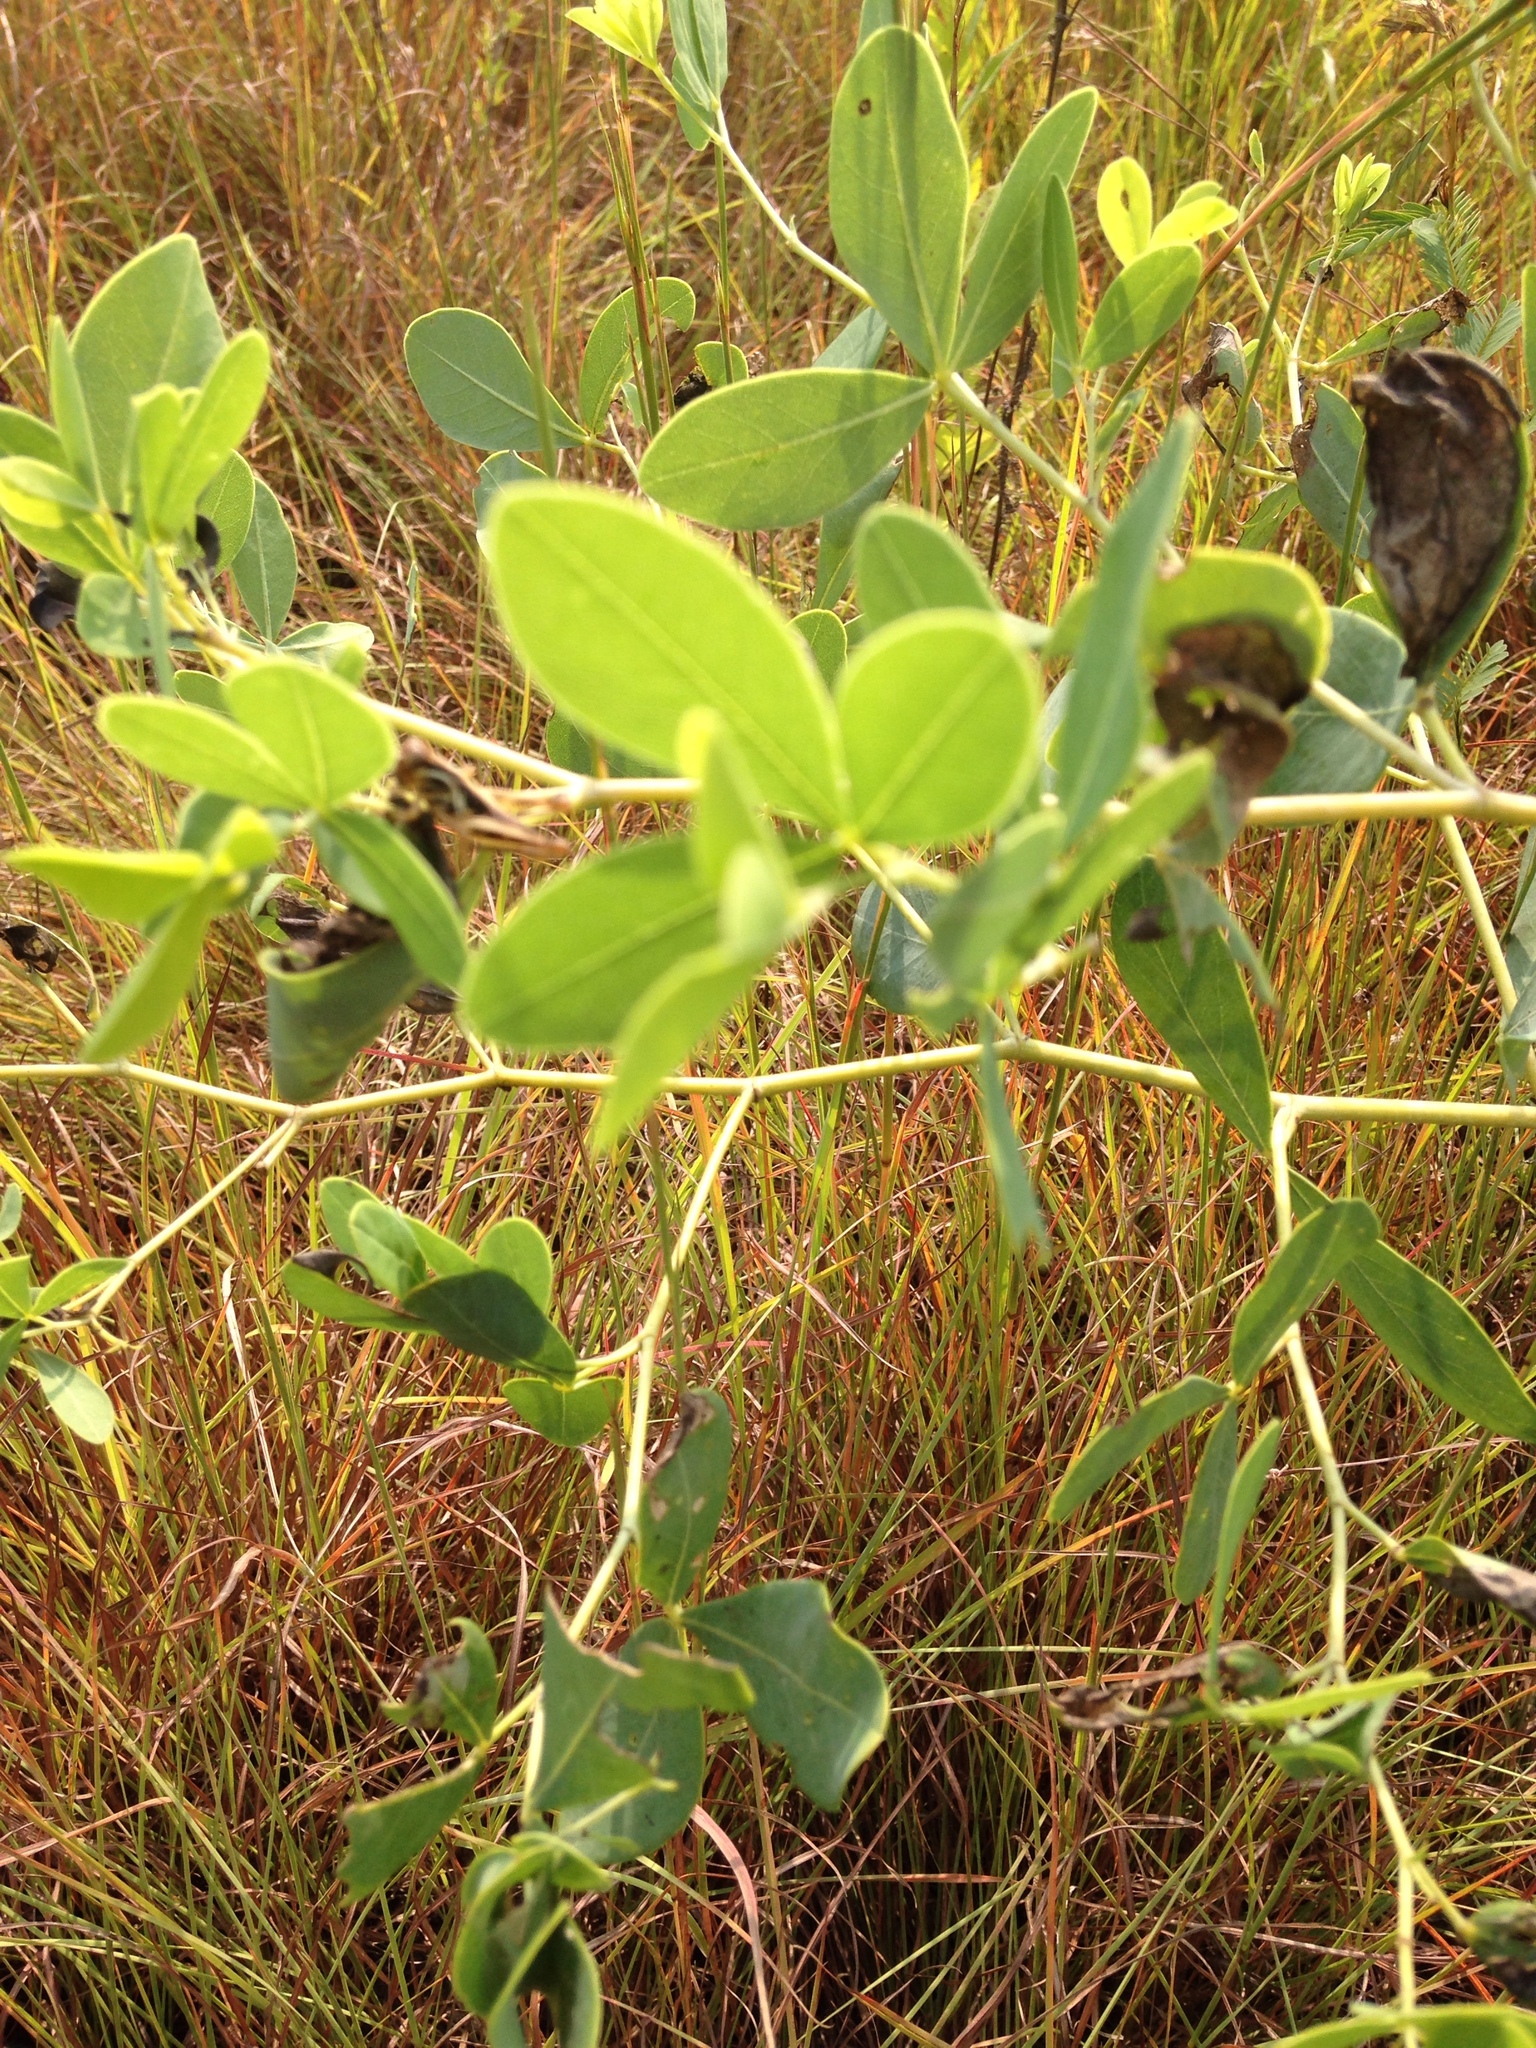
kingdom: Plantae
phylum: Tracheophyta
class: Magnoliopsida
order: Fabales
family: Fabaceae
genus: Baptisia
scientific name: Baptisia alba
